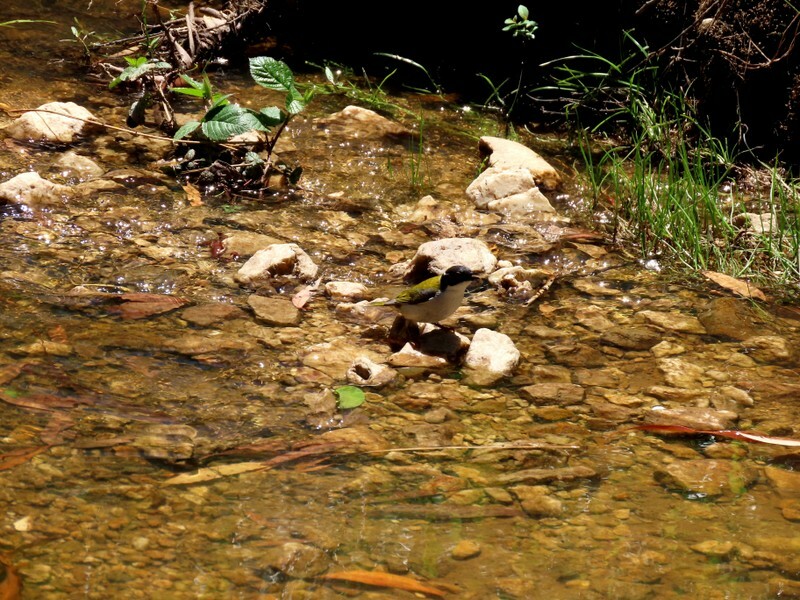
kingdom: Animalia
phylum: Chordata
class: Aves
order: Passeriformes
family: Meliphagidae
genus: Melithreptus
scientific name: Melithreptus lunatus
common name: White-naped honeyeater
